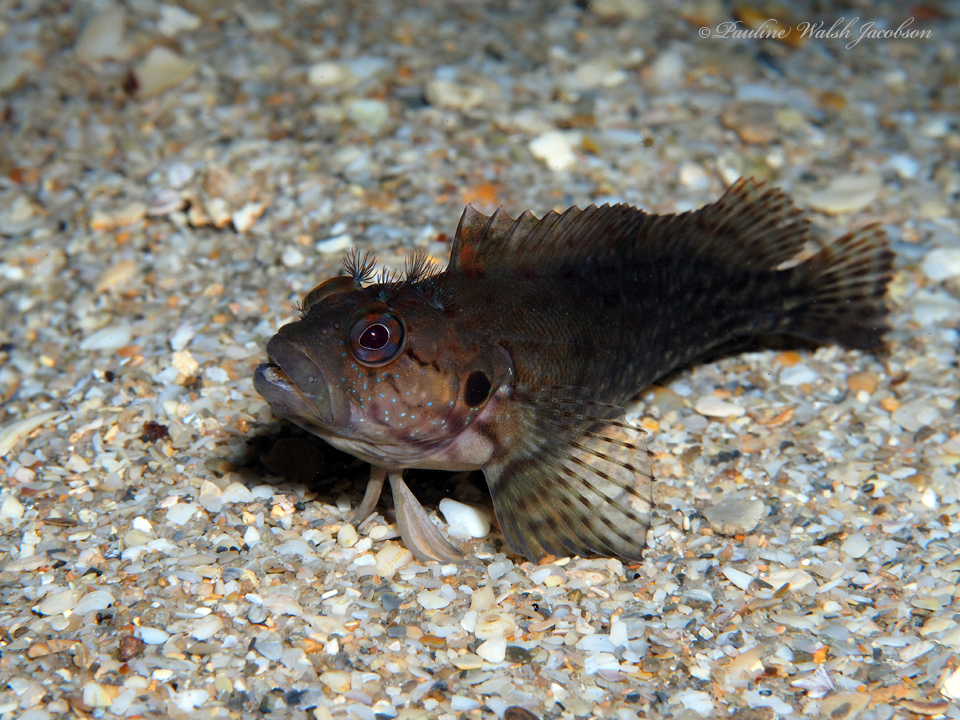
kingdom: Animalia
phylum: Chordata
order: Perciformes
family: Labrisomidae
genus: Labrisomus
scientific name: Labrisomus conditus
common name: Masquerader hairy blenny
